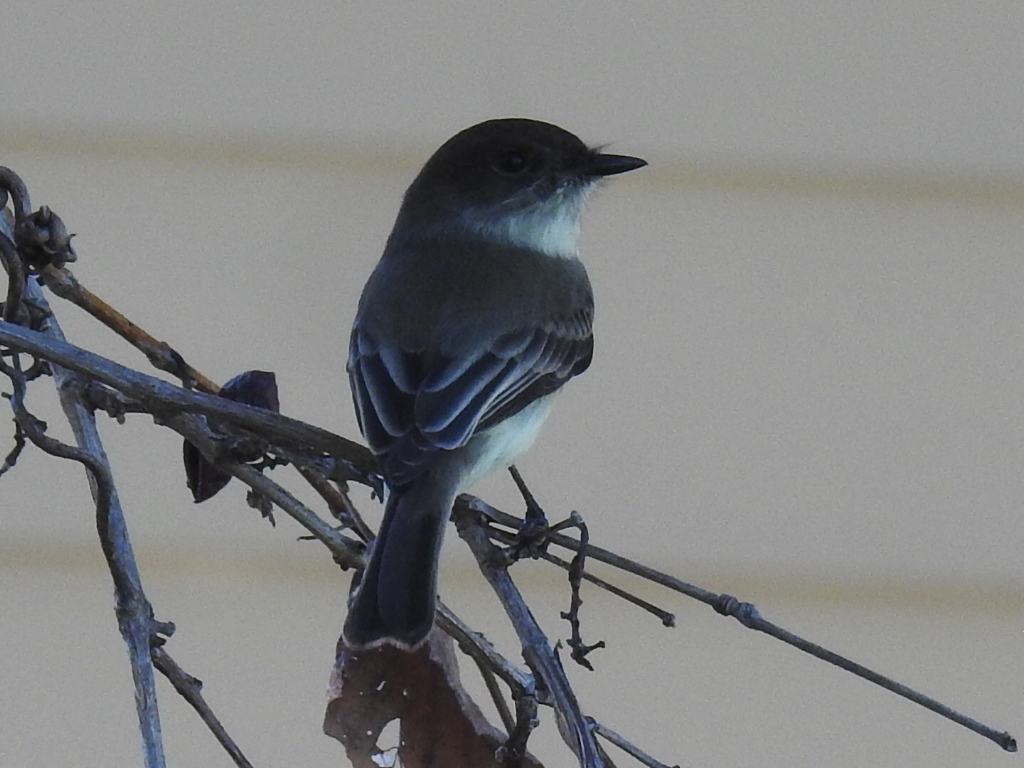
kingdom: Animalia
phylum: Chordata
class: Aves
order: Passeriformes
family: Tyrannidae
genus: Sayornis
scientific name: Sayornis phoebe
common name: Eastern phoebe
